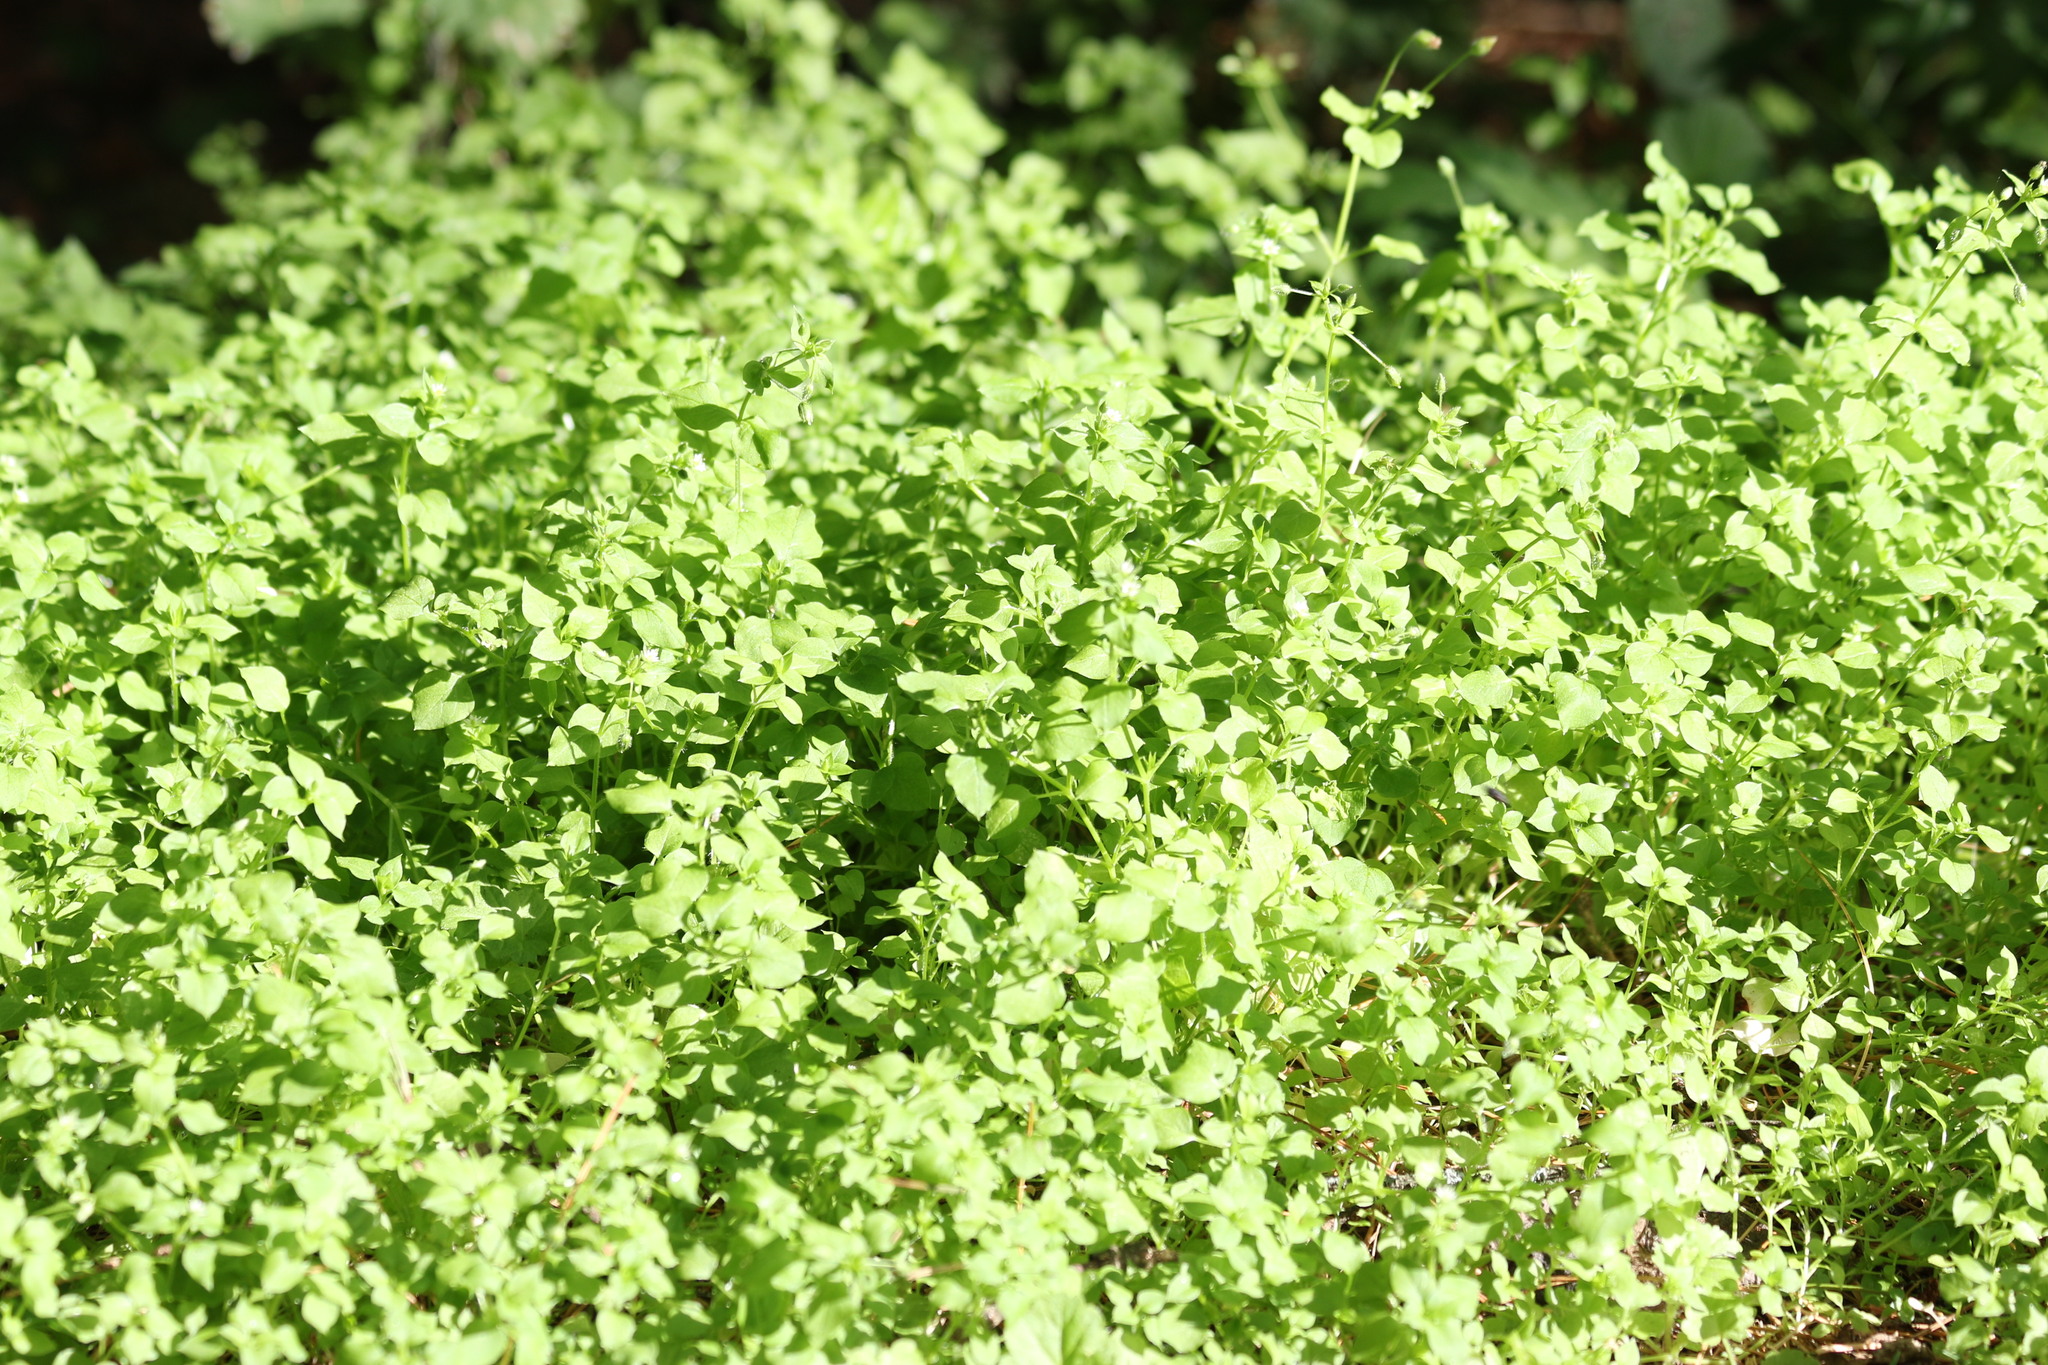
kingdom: Plantae
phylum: Tracheophyta
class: Magnoliopsida
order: Caryophyllales
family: Caryophyllaceae
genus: Stellaria
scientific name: Stellaria media
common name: Common chickweed
